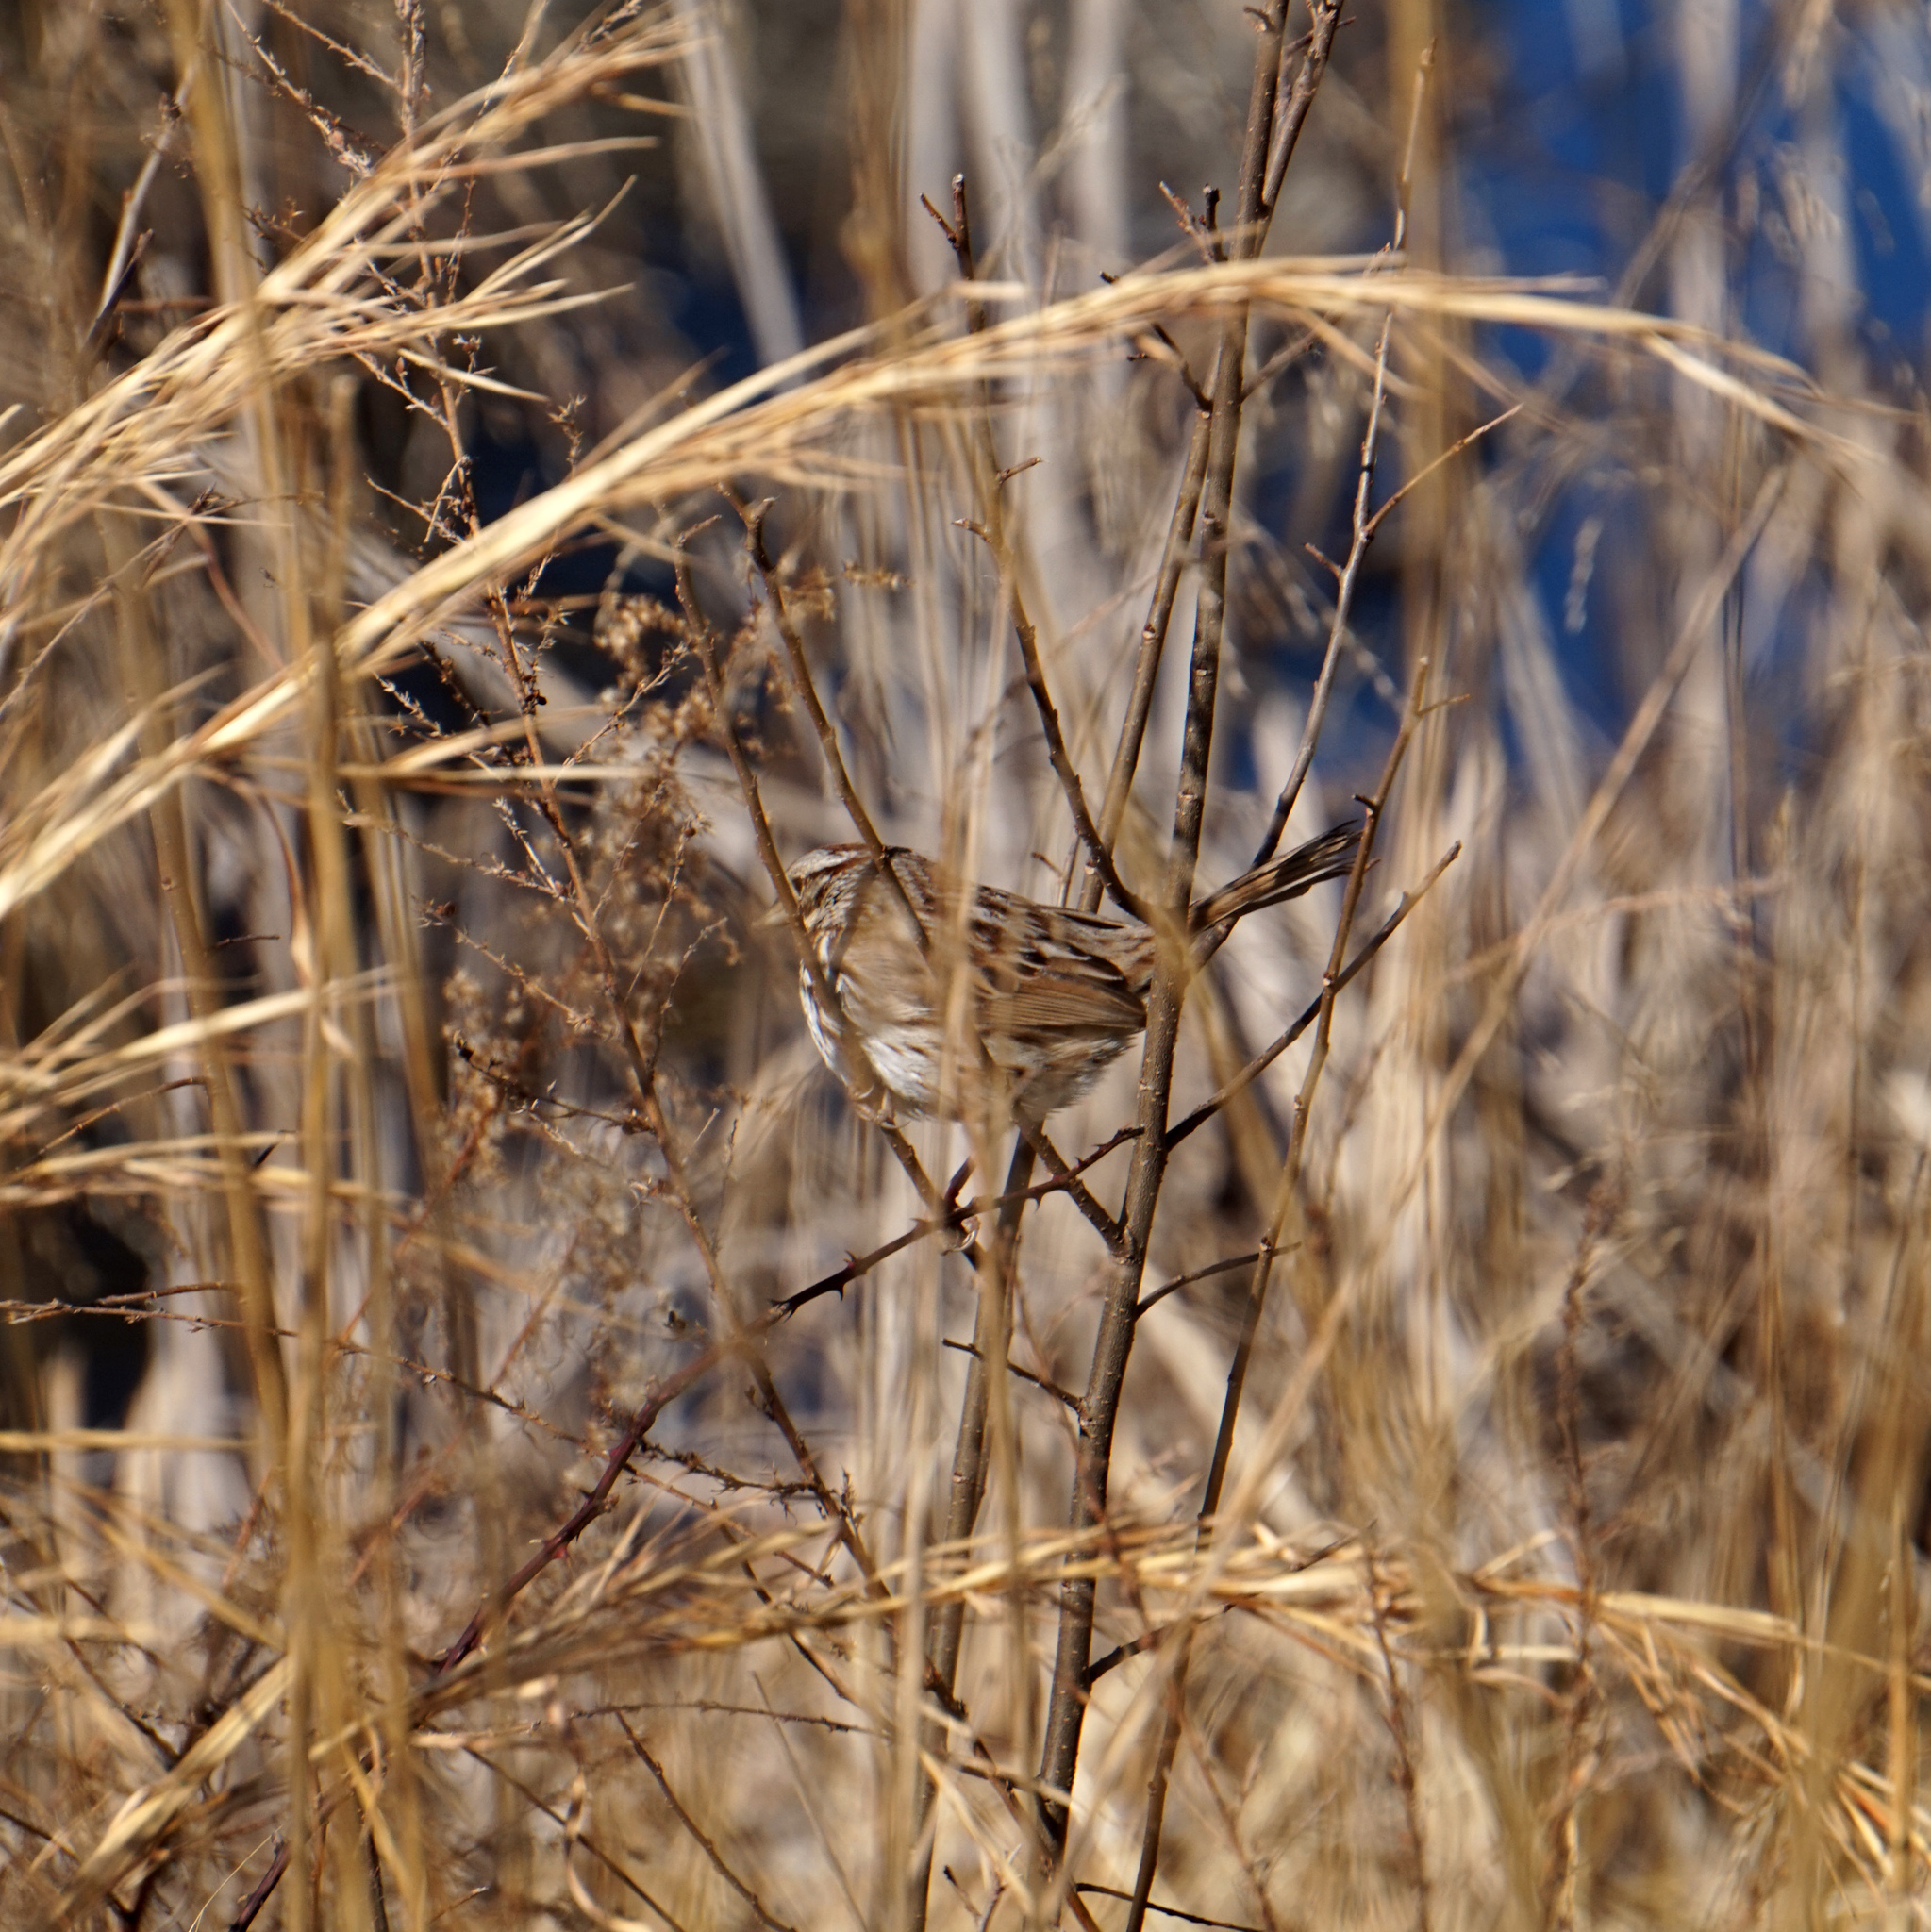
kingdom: Animalia
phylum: Chordata
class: Aves
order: Passeriformes
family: Passerellidae
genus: Melospiza
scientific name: Melospiza melodia
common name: Song sparrow
